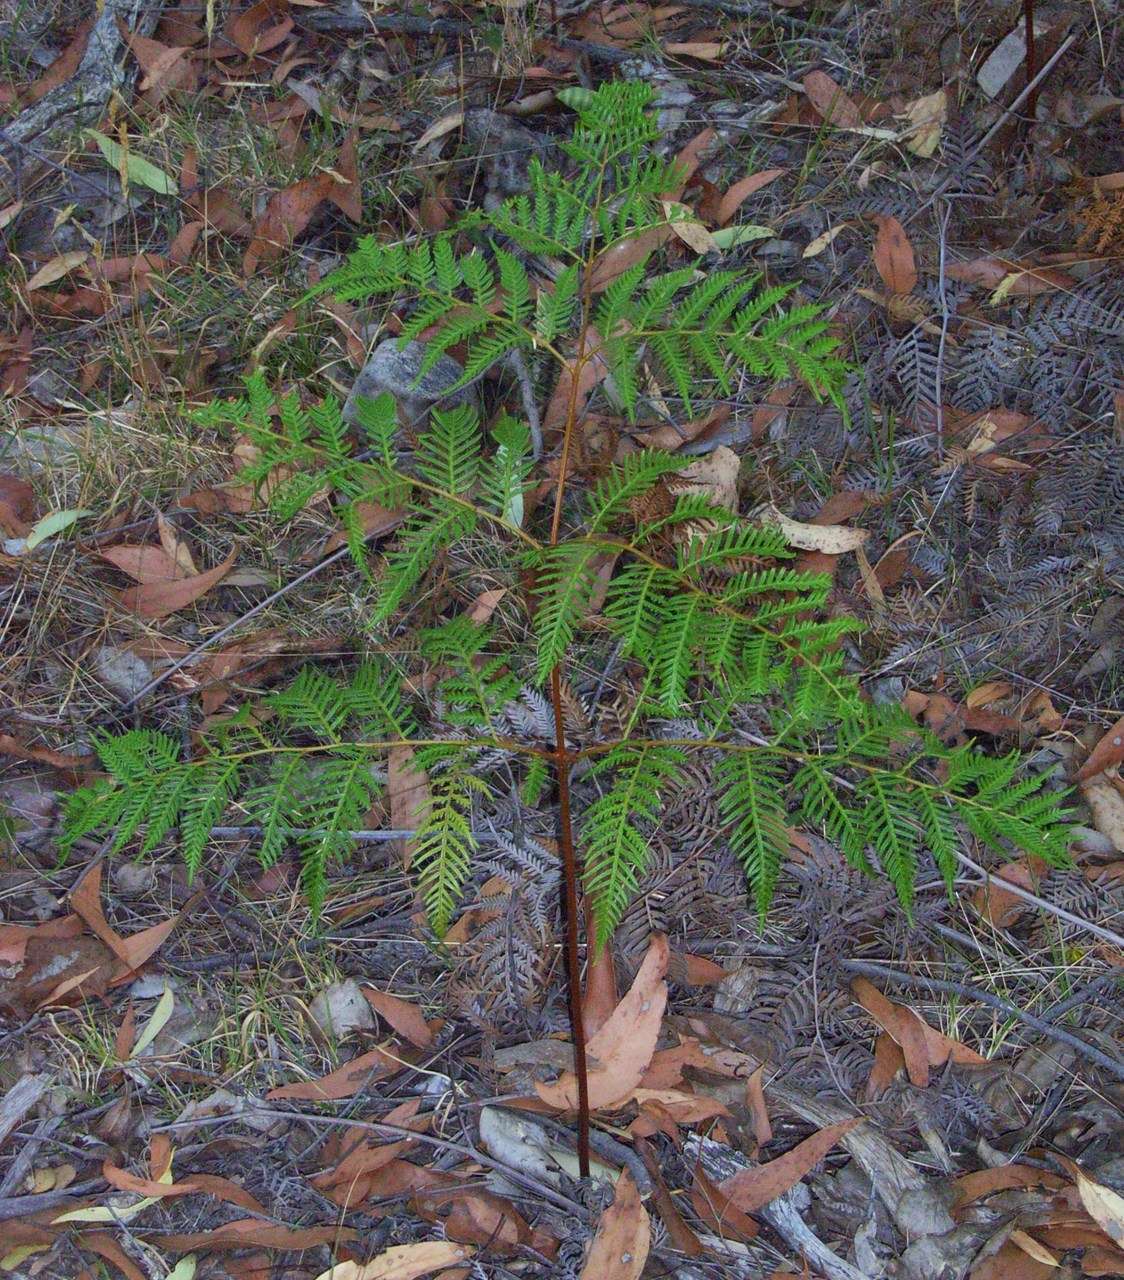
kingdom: Plantae
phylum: Tracheophyta
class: Polypodiopsida
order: Polypodiales
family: Dennstaedtiaceae
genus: Pteridium
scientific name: Pteridium esculentum
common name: Bracken fern
